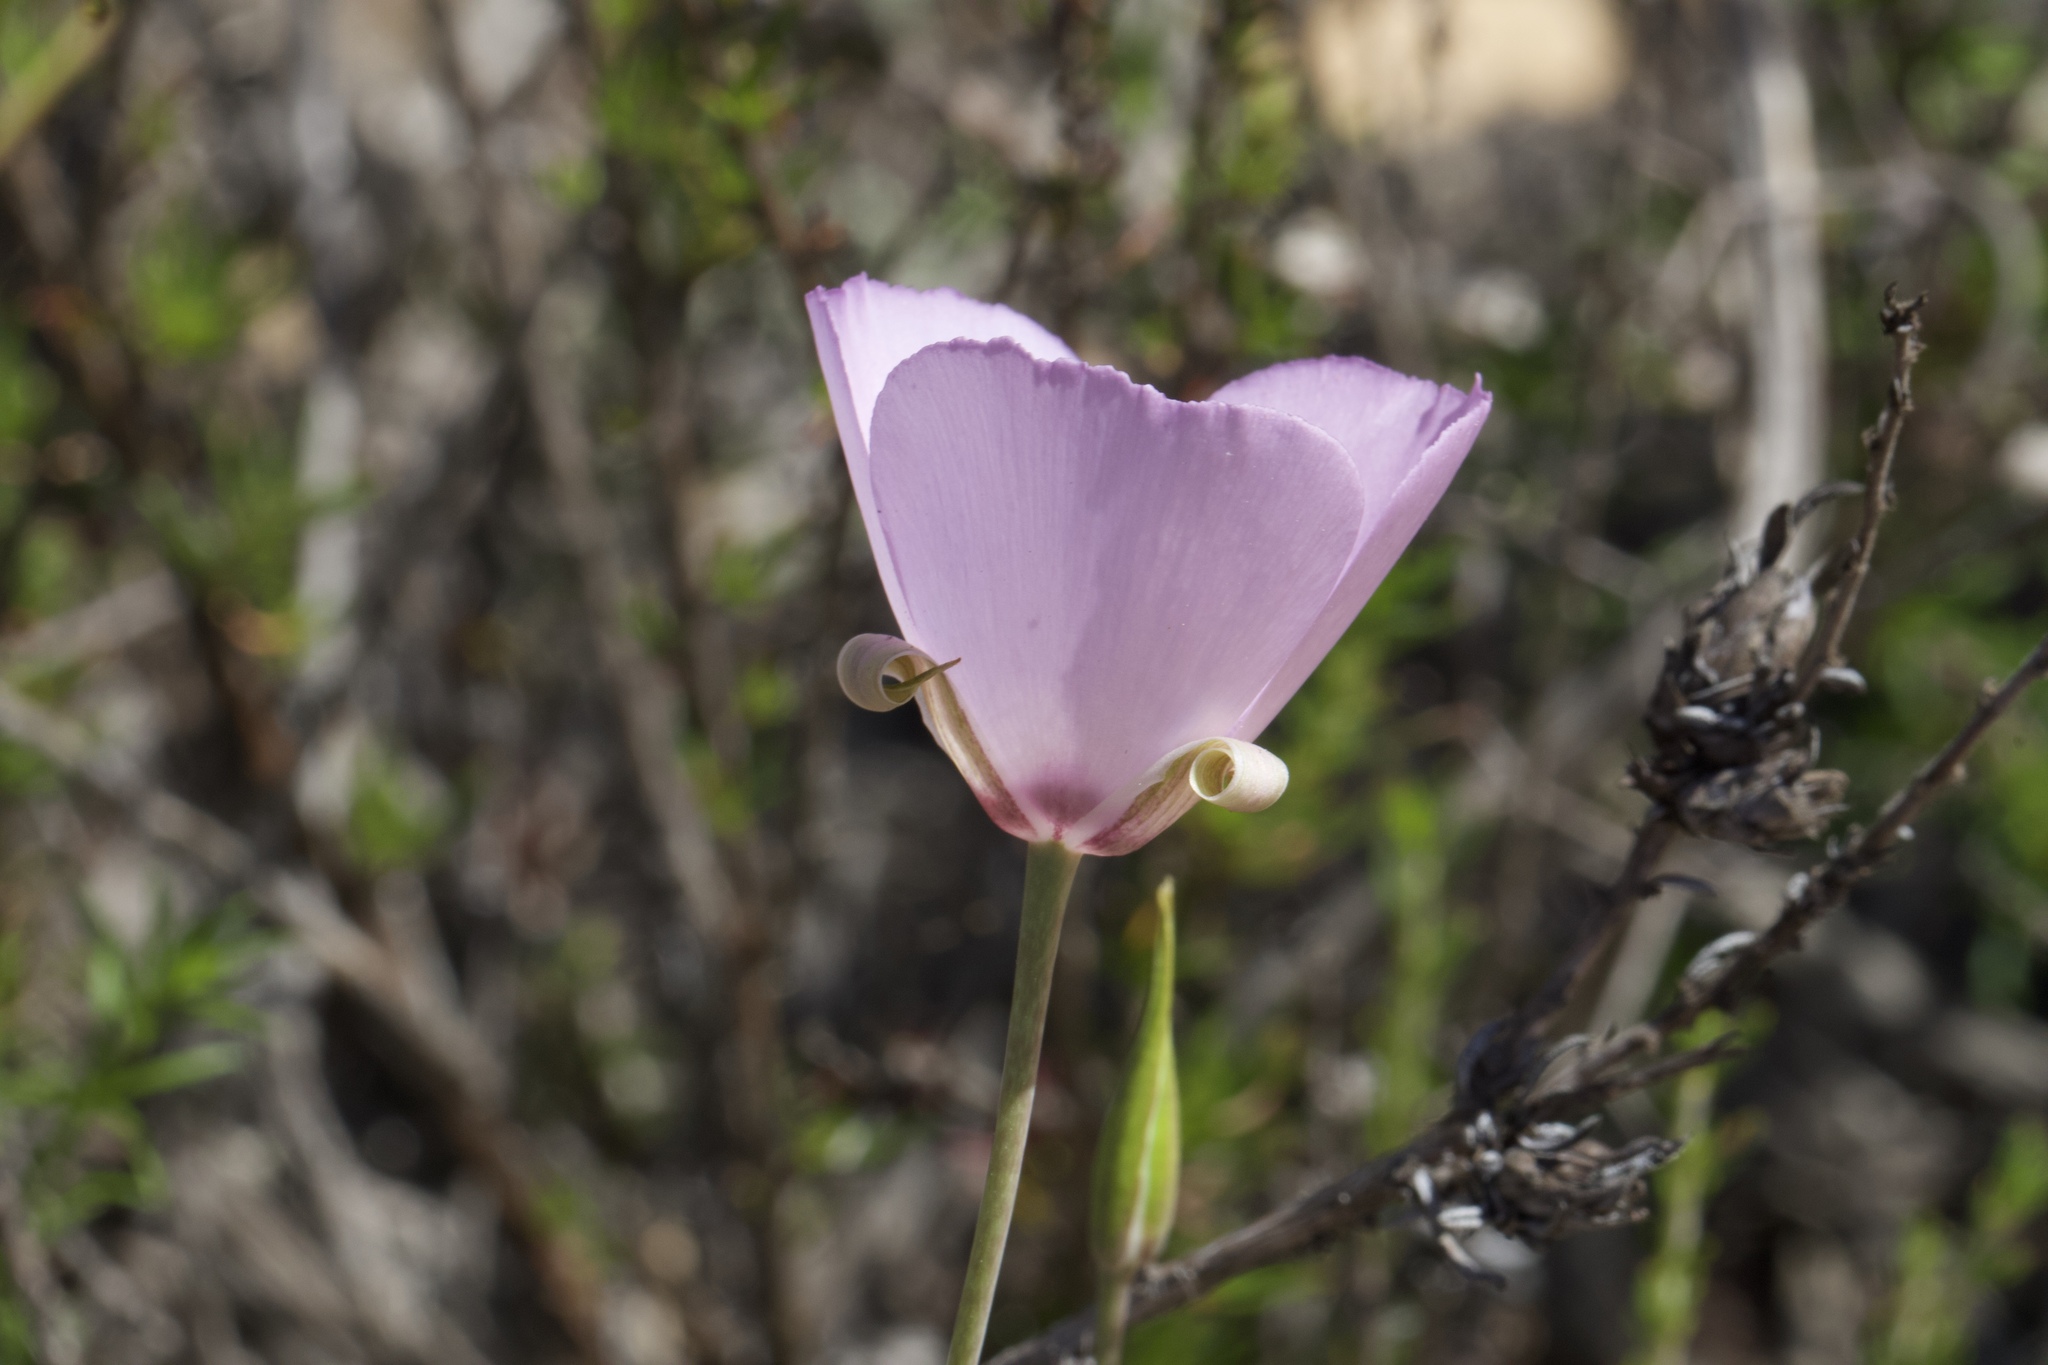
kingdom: Plantae
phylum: Tracheophyta
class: Liliopsida
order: Liliales
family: Liliaceae
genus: Calochortus
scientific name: Calochortus splendens
